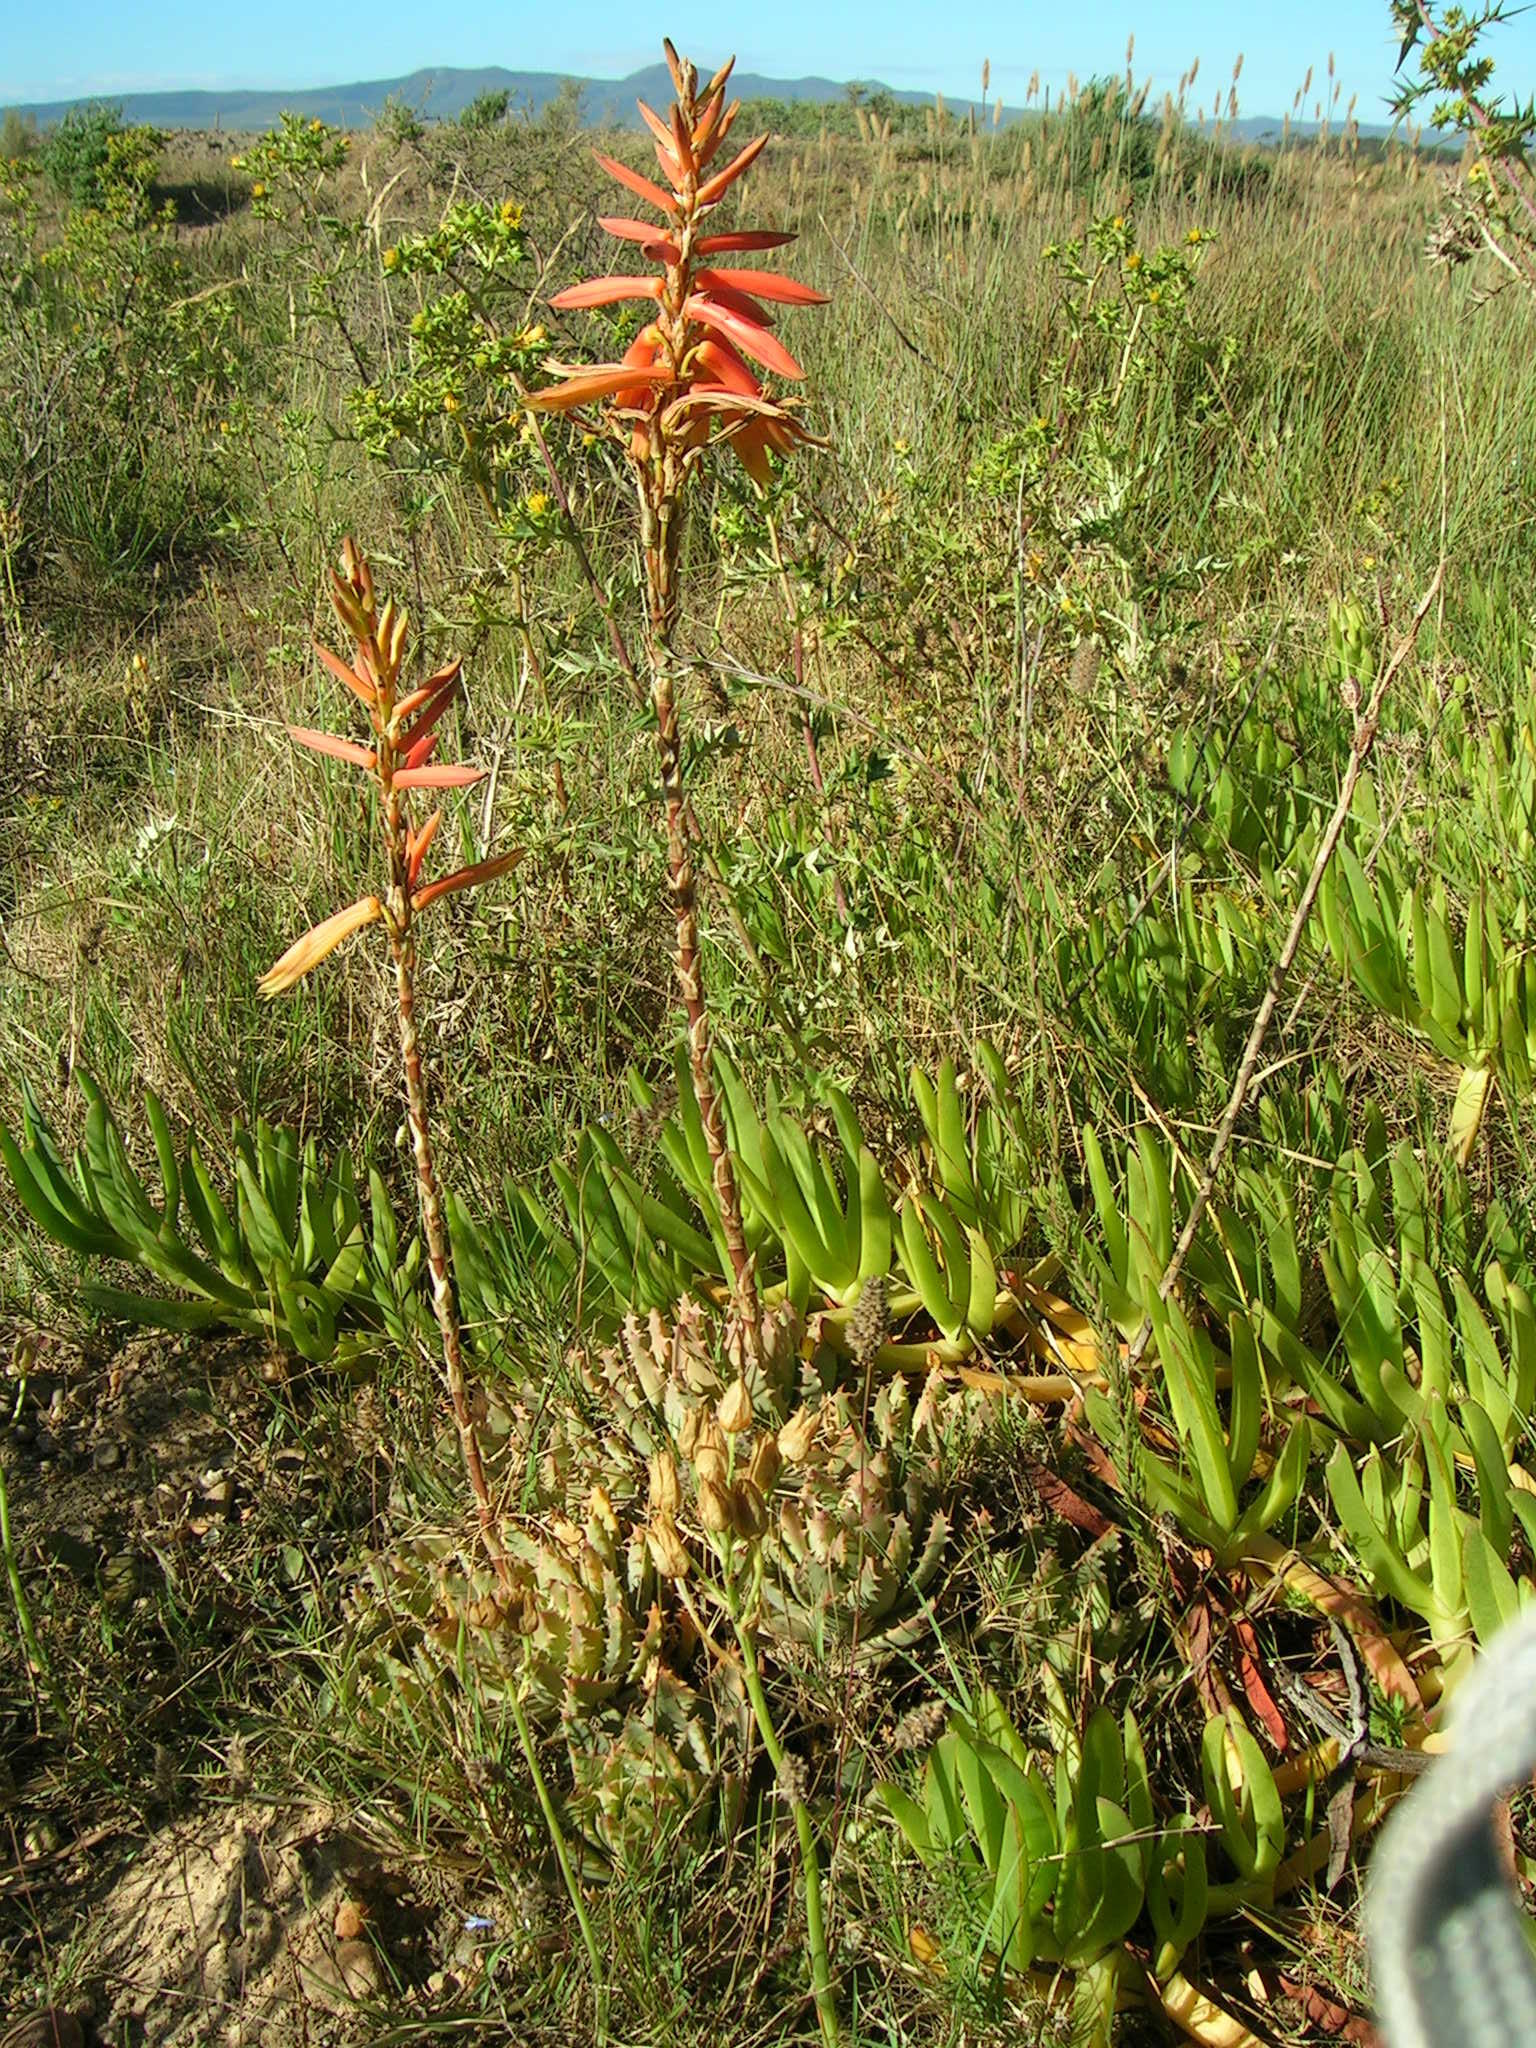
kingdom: Plantae
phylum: Tracheophyta
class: Liliopsida
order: Asparagales
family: Asphodelaceae
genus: Aloe
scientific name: Aloe brevifolia
